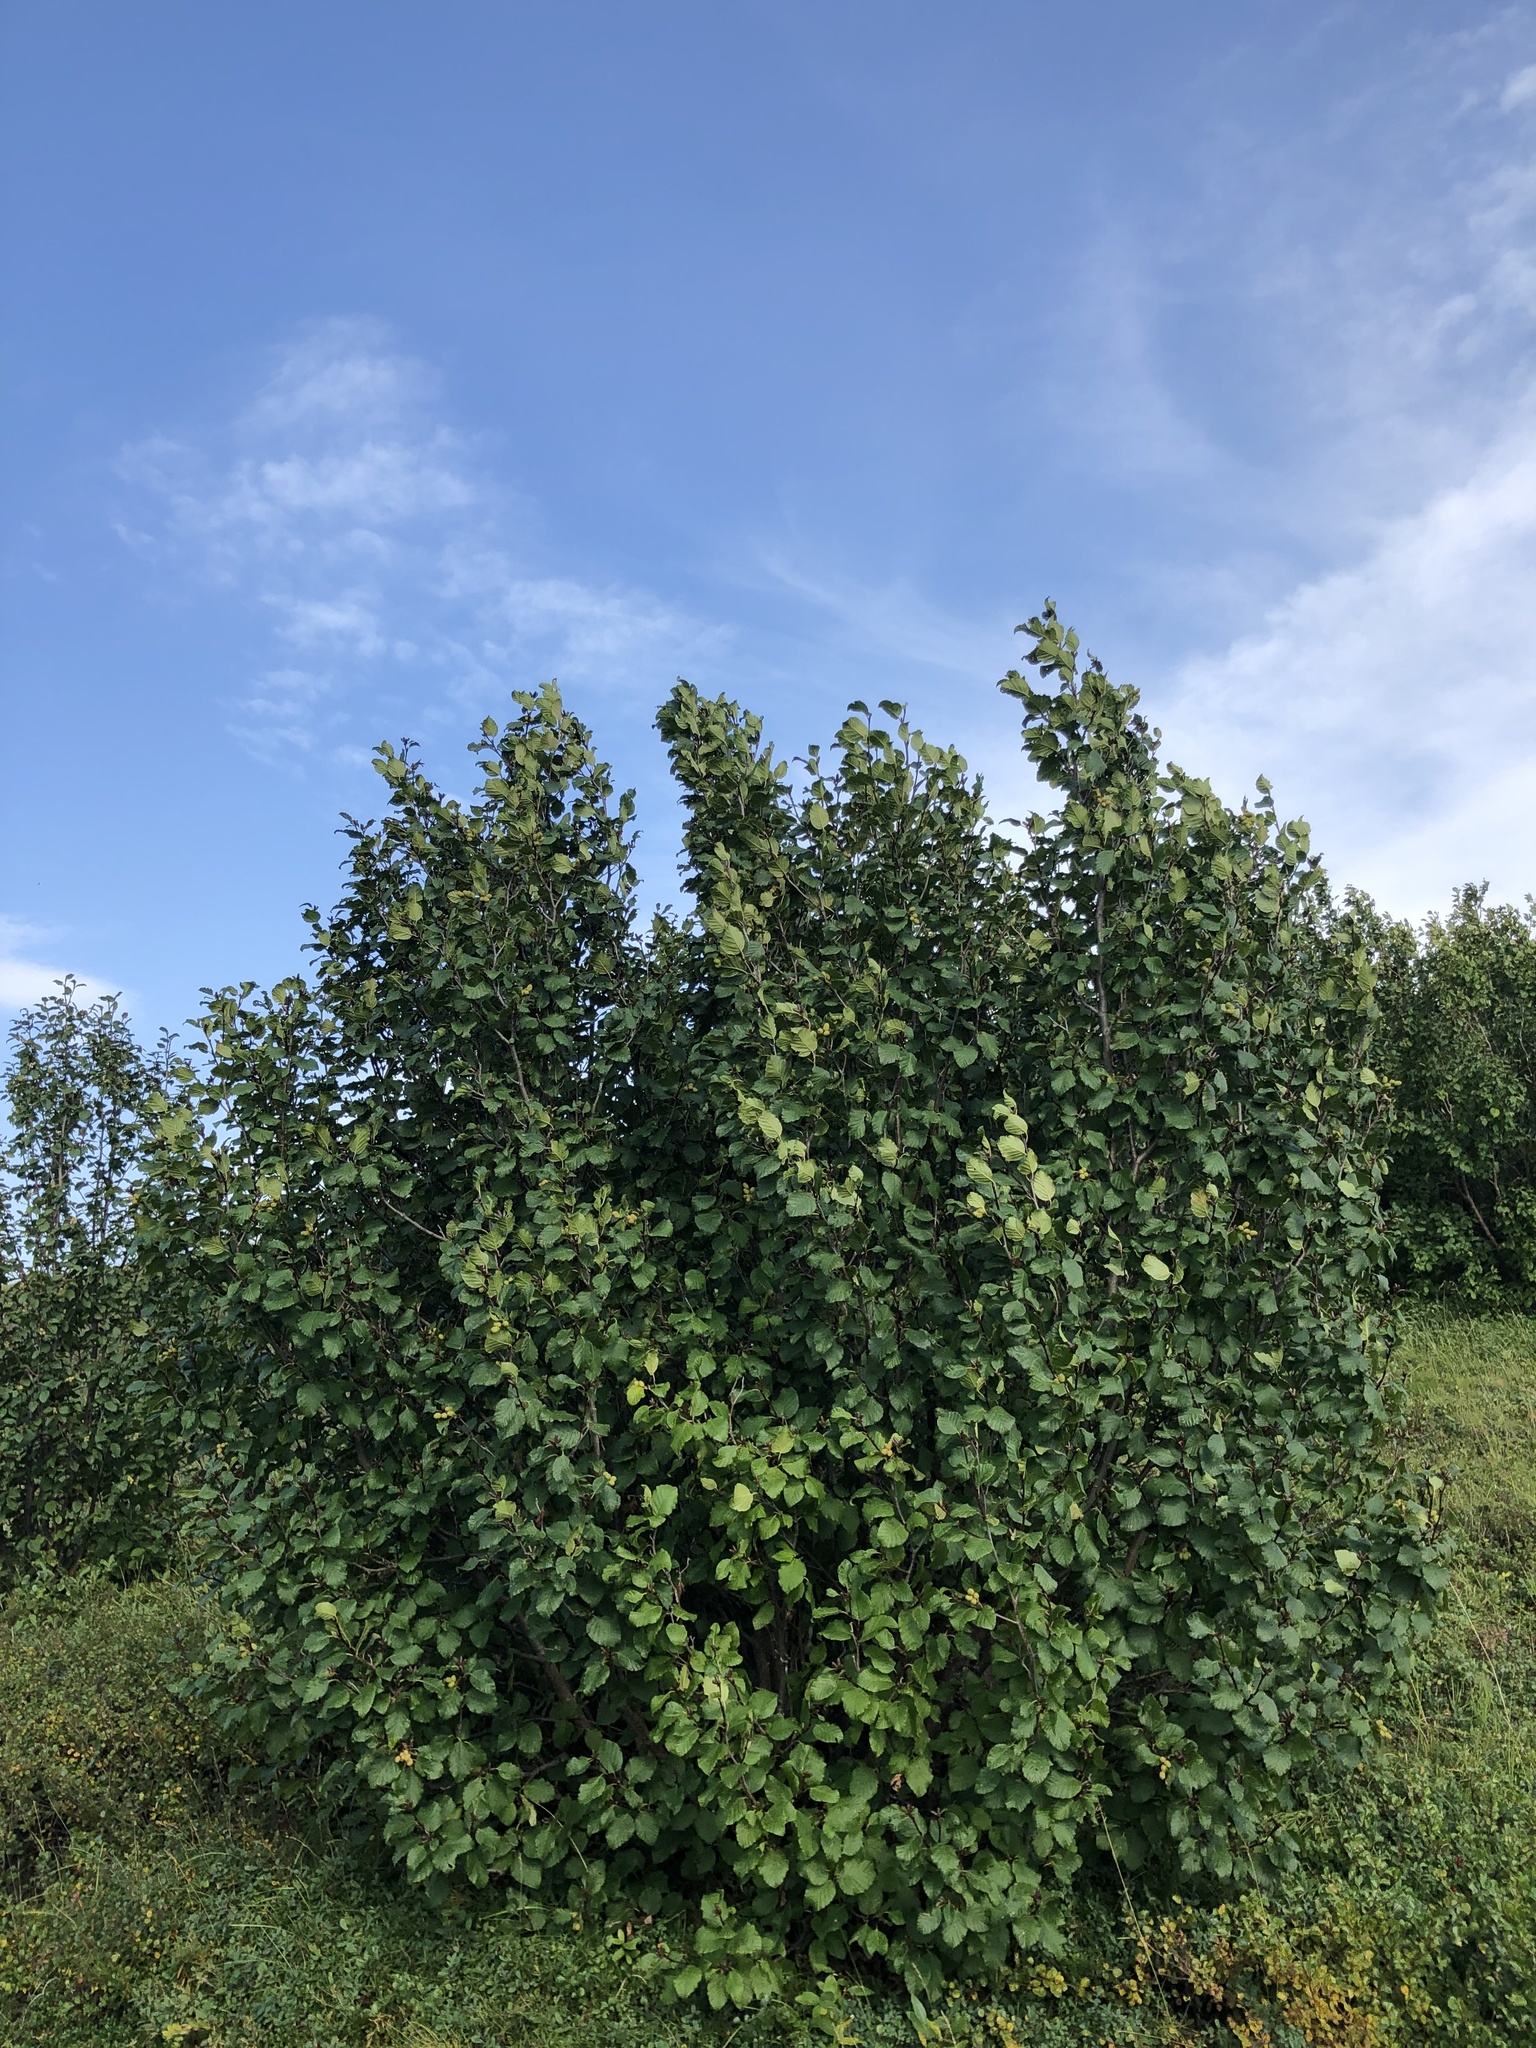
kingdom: Plantae
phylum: Tracheophyta
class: Magnoliopsida
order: Fagales
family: Betulaceae
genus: Alnus
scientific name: Alnus alnobetula
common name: Green alder
